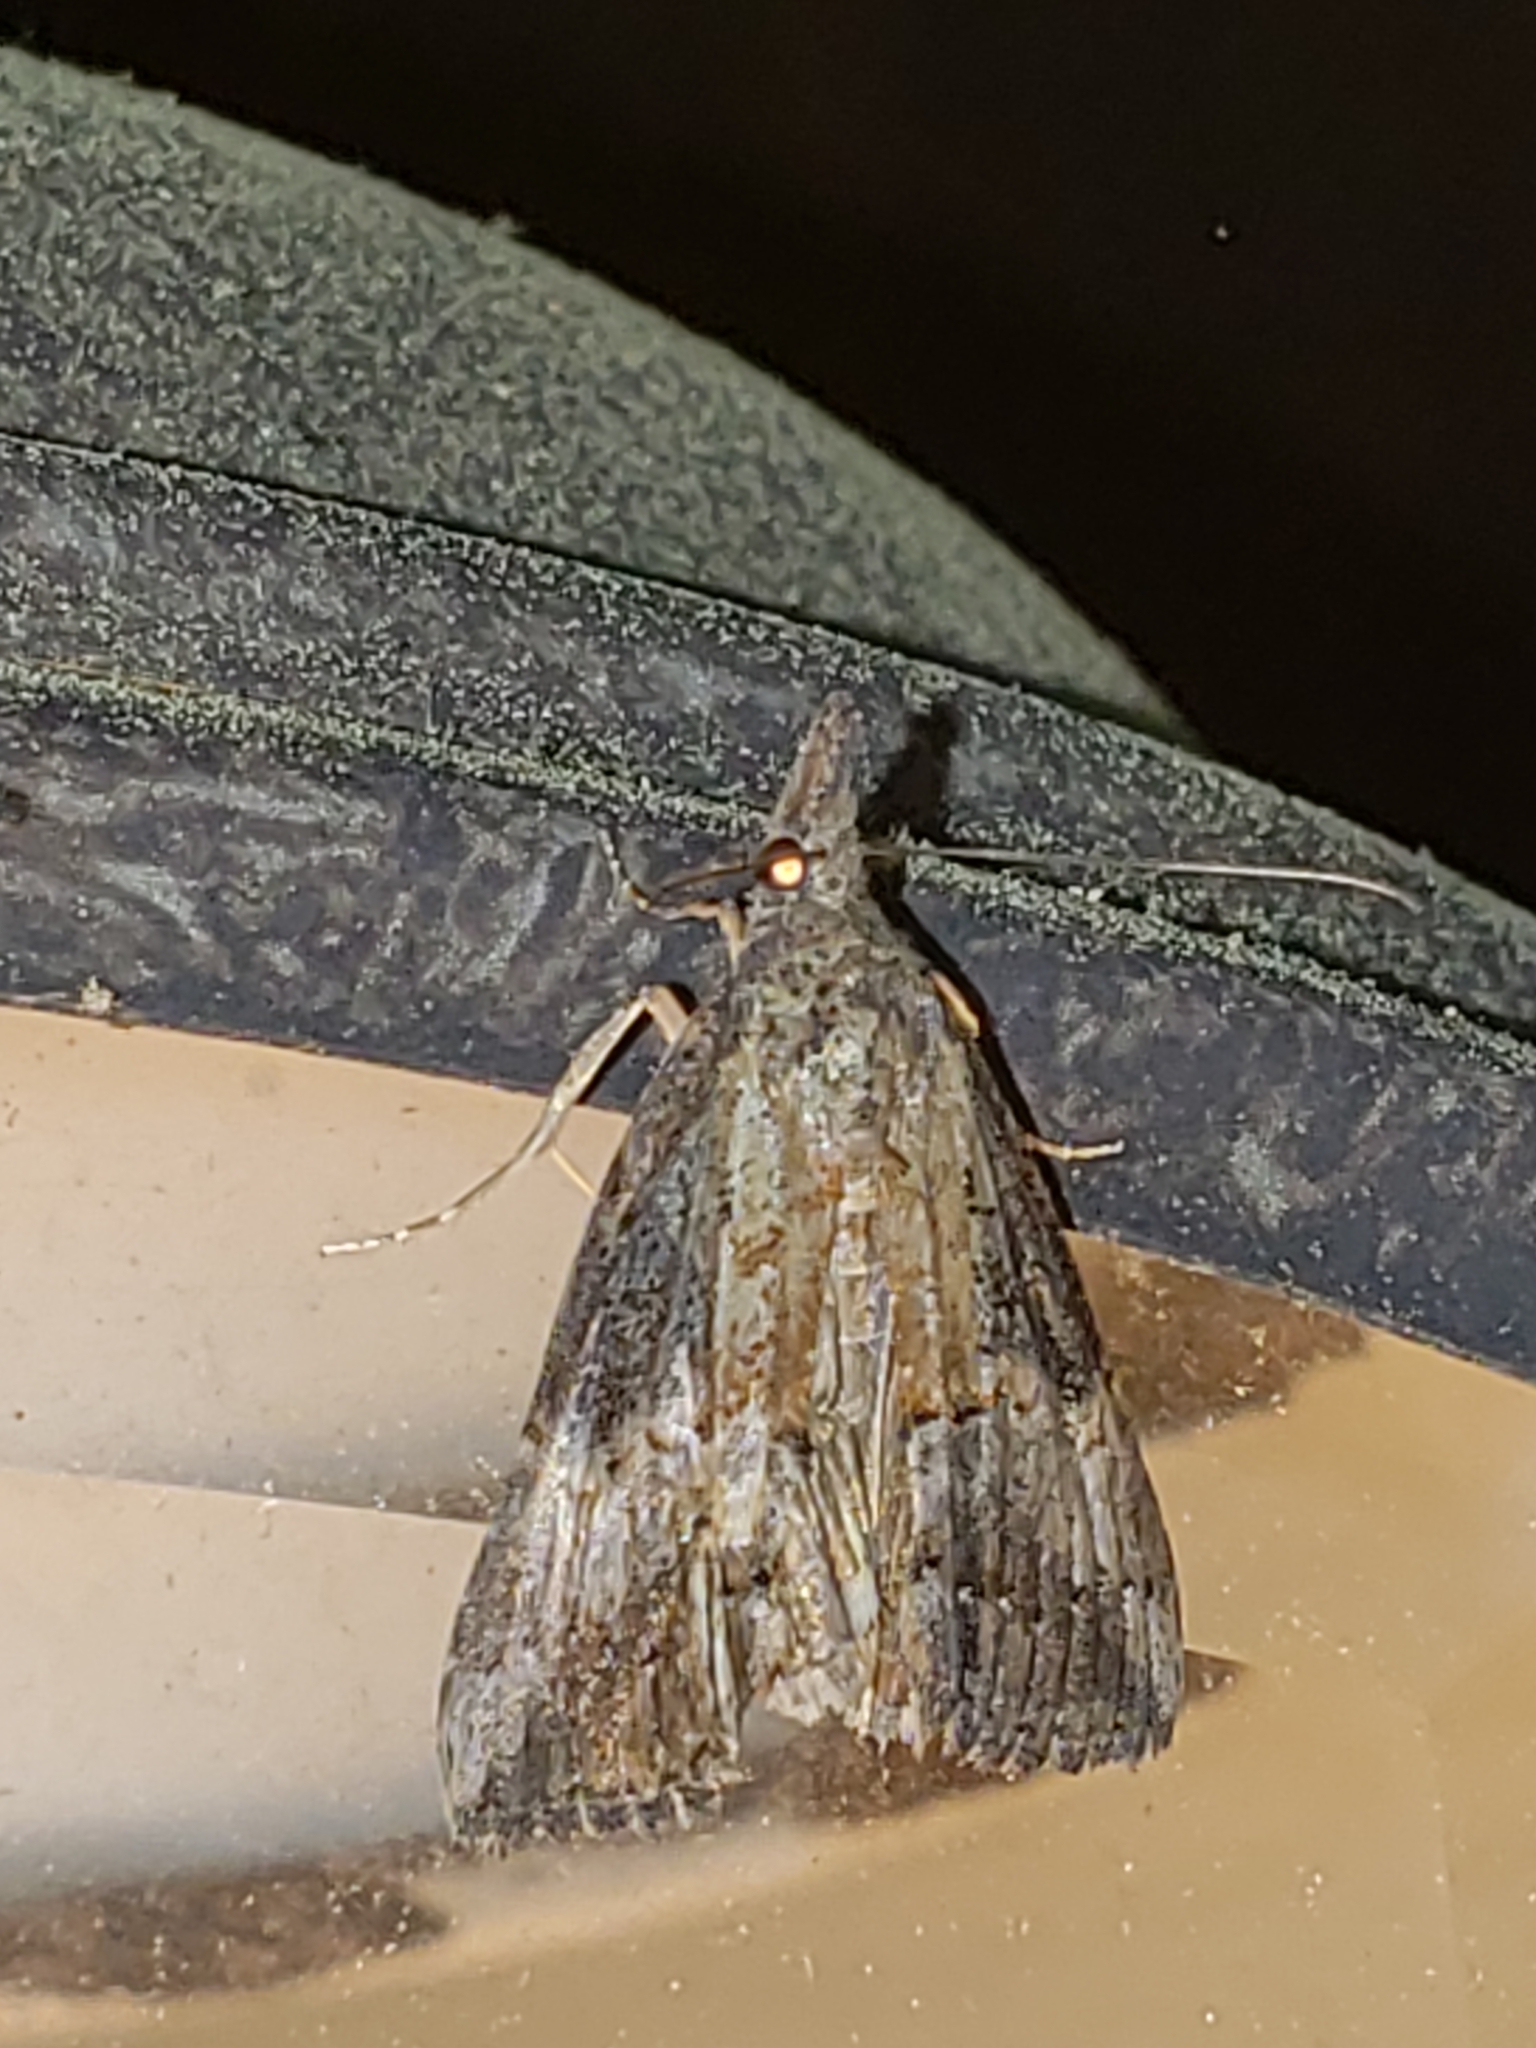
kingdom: Animalia
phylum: Arthropoda
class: Insecta
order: Lepidoptera
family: Erebidae
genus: Hypena
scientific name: Hypena scabra
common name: Green cloverworm
